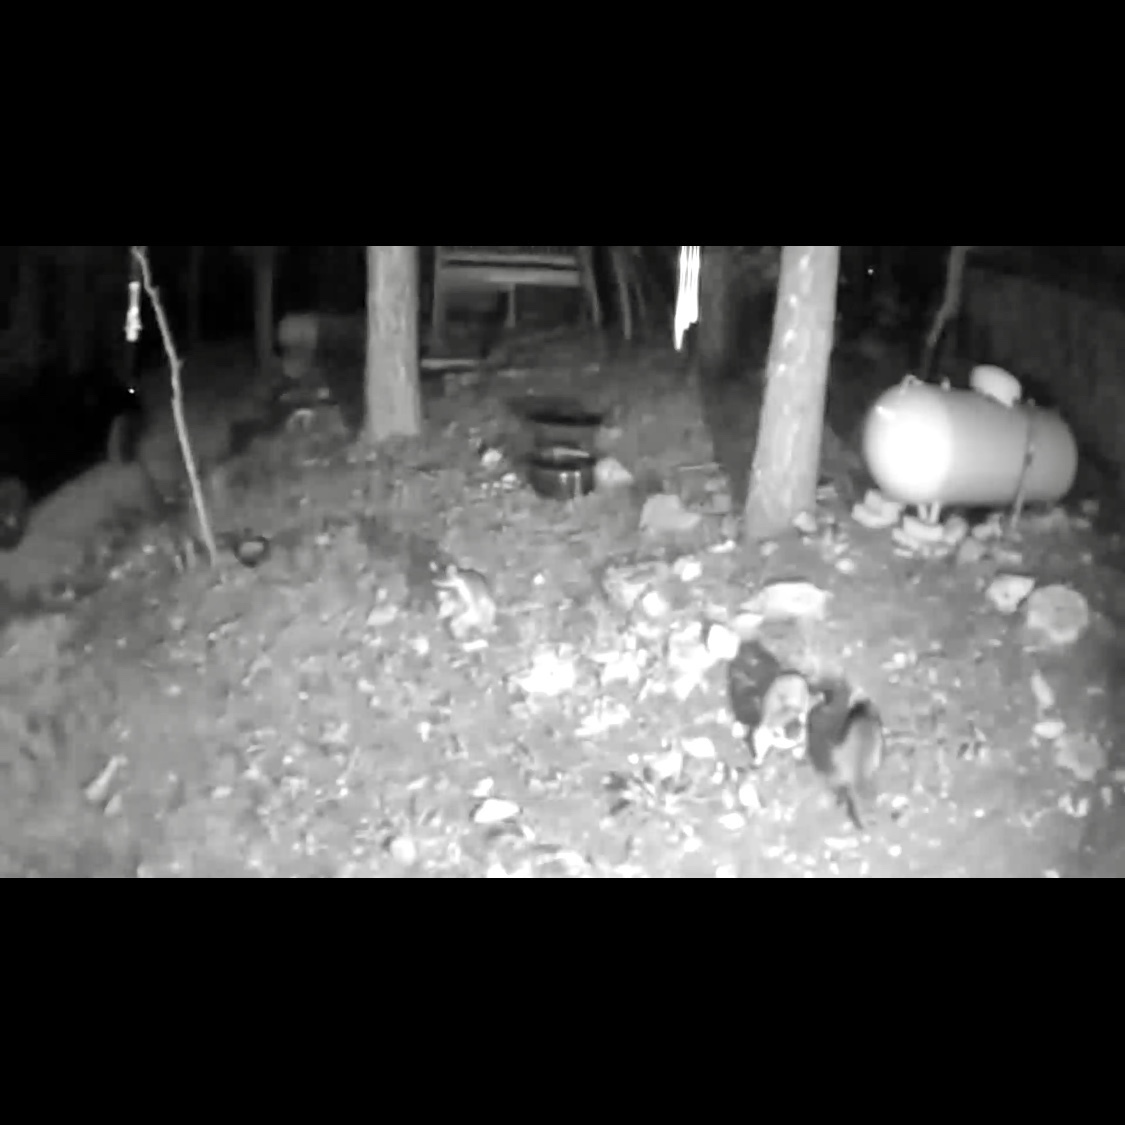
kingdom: Animalia
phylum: Chordata
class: Mammalia
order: Carnivora
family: Procyonidae
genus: Procyon
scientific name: Procyon lotor
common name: Raccoon
